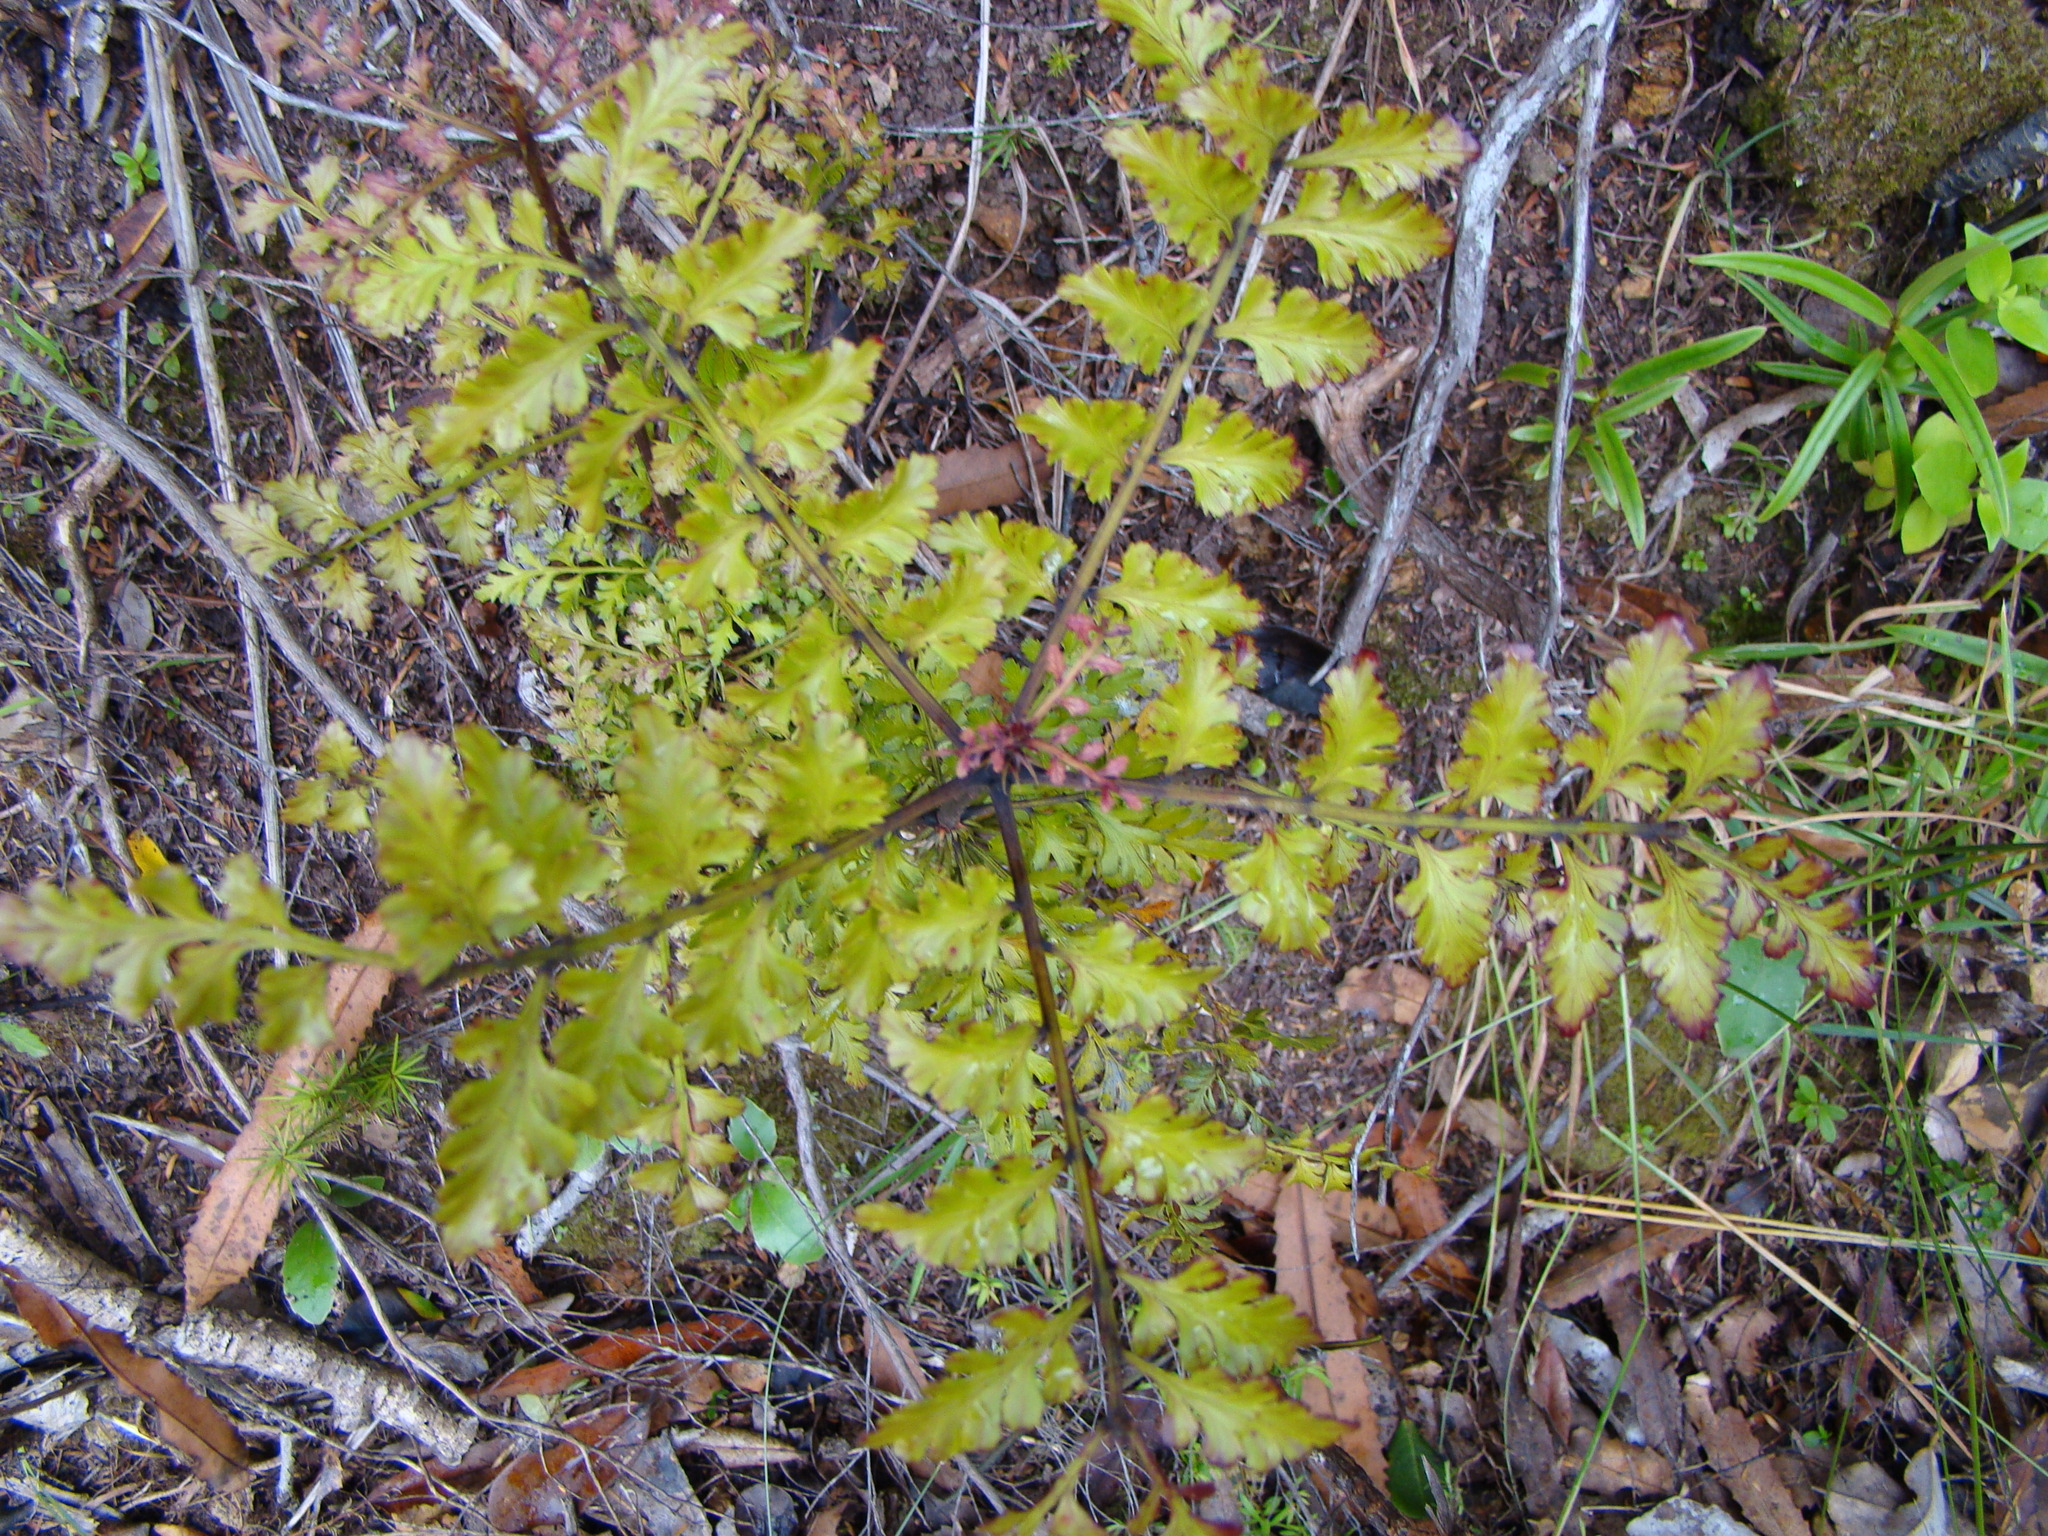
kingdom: Plantae
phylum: Tracheophyta
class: Pinopsida
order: Pinales
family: Phyllocladaceae
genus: Phyllocladus
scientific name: Phyllocladus trichomanoides
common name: Celery pine
